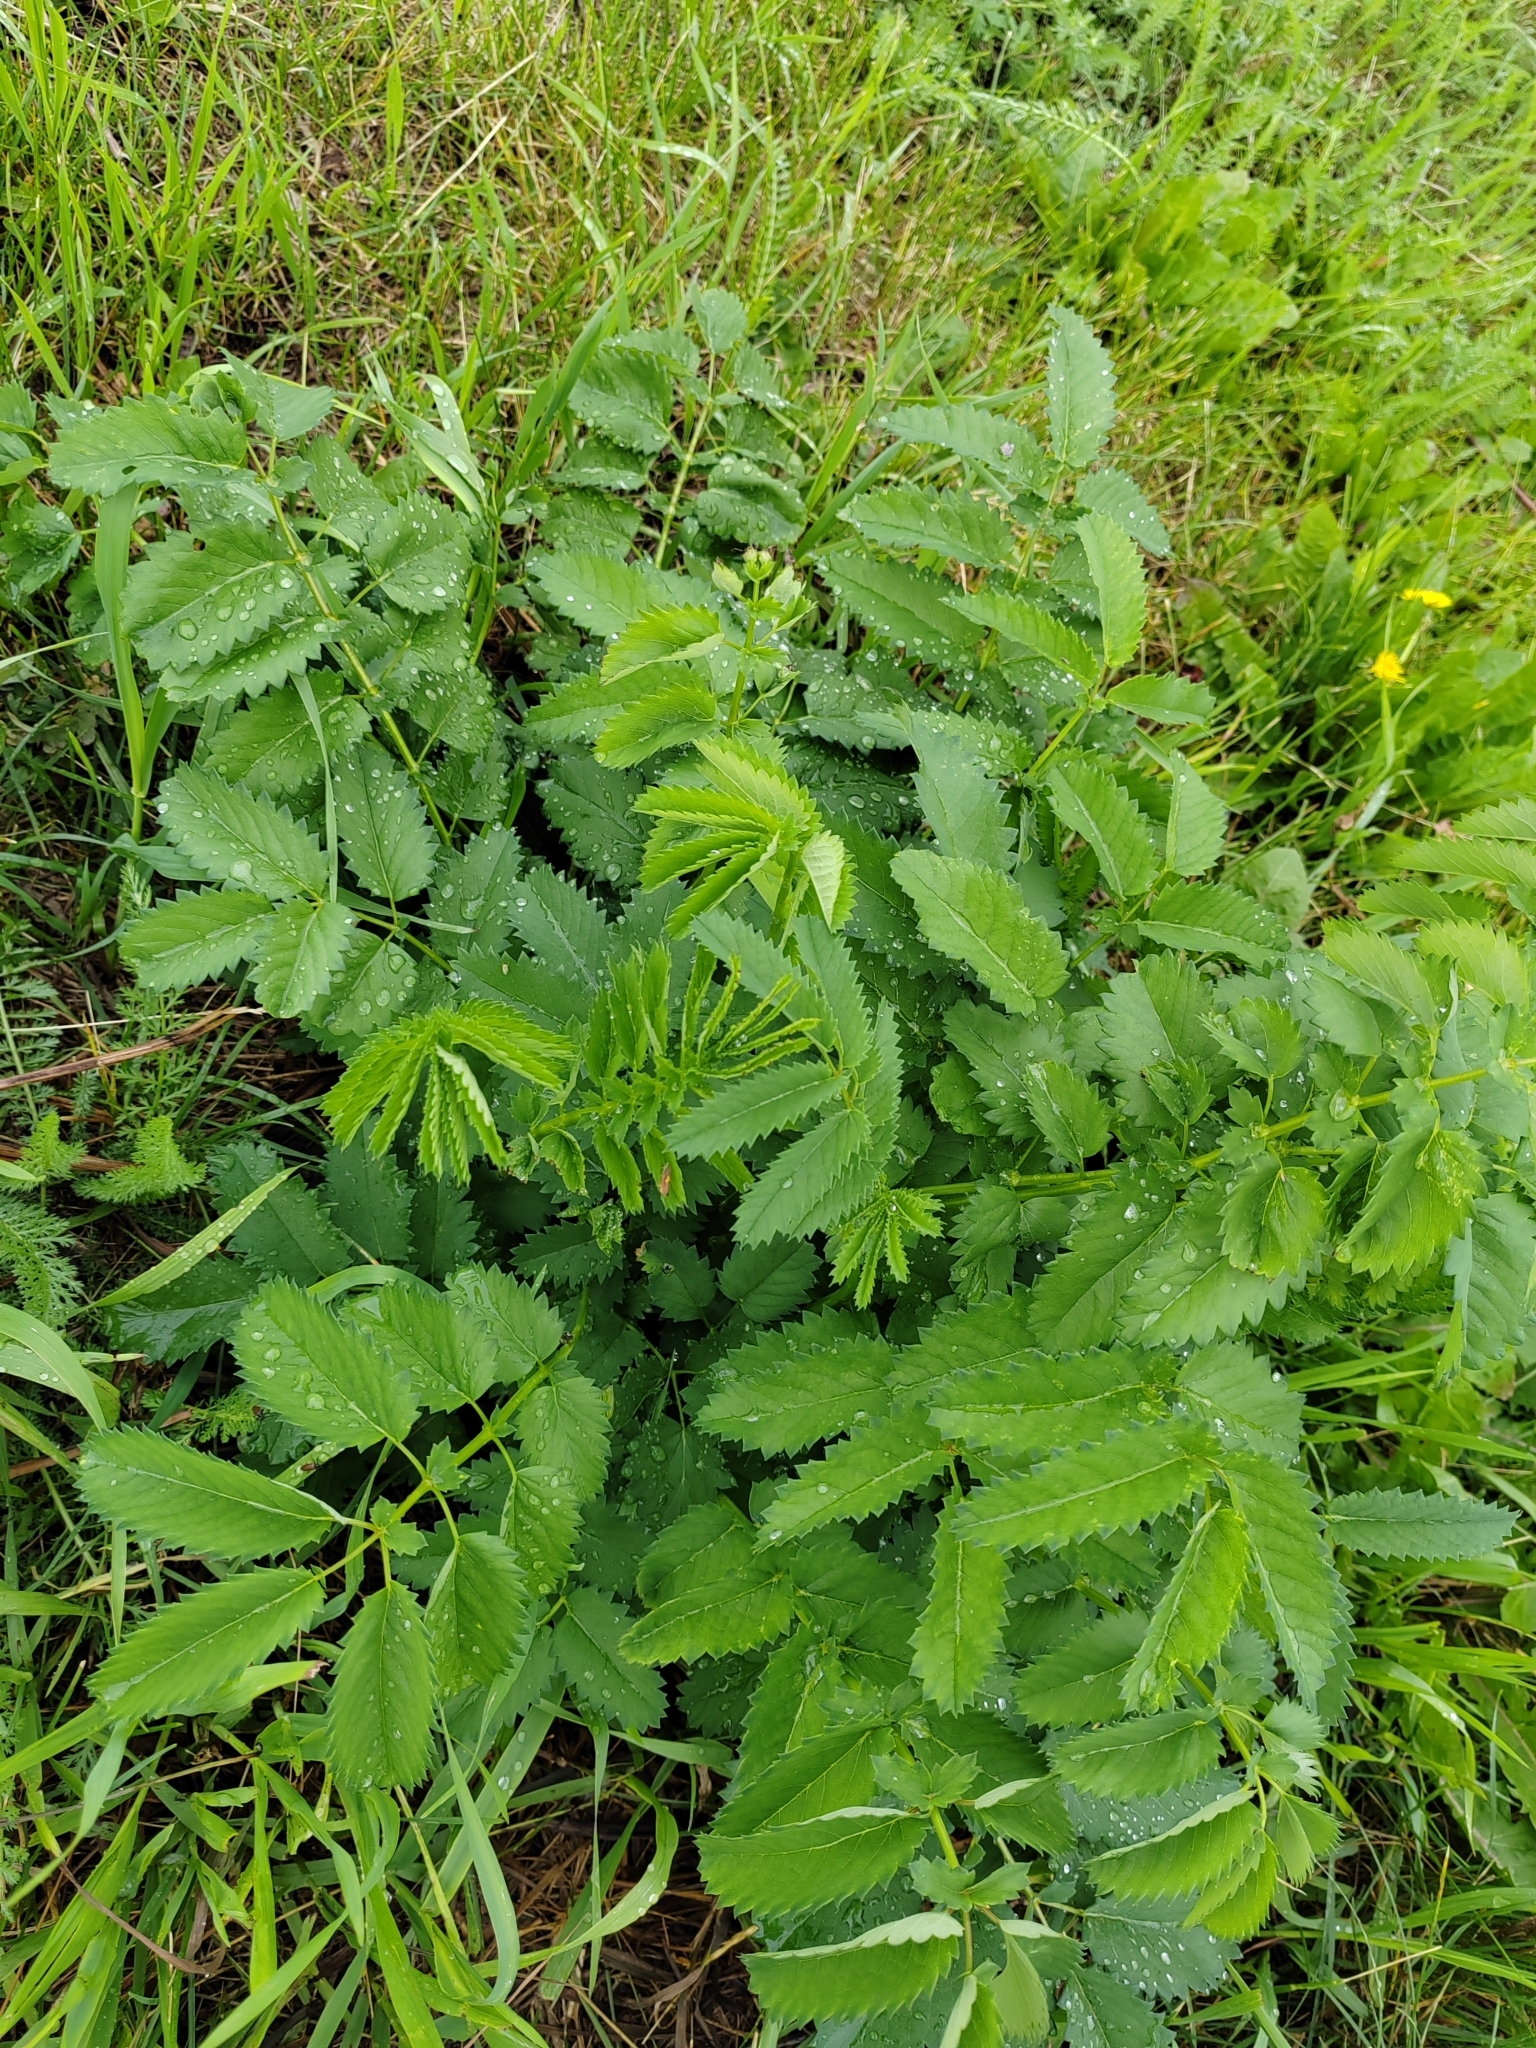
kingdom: Plantae
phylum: Tracheophyta
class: Magnoliopsida
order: Rosales
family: Rosaceae
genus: Sanguisorba
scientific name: Sanguisorba officinalis
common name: Great burnet
